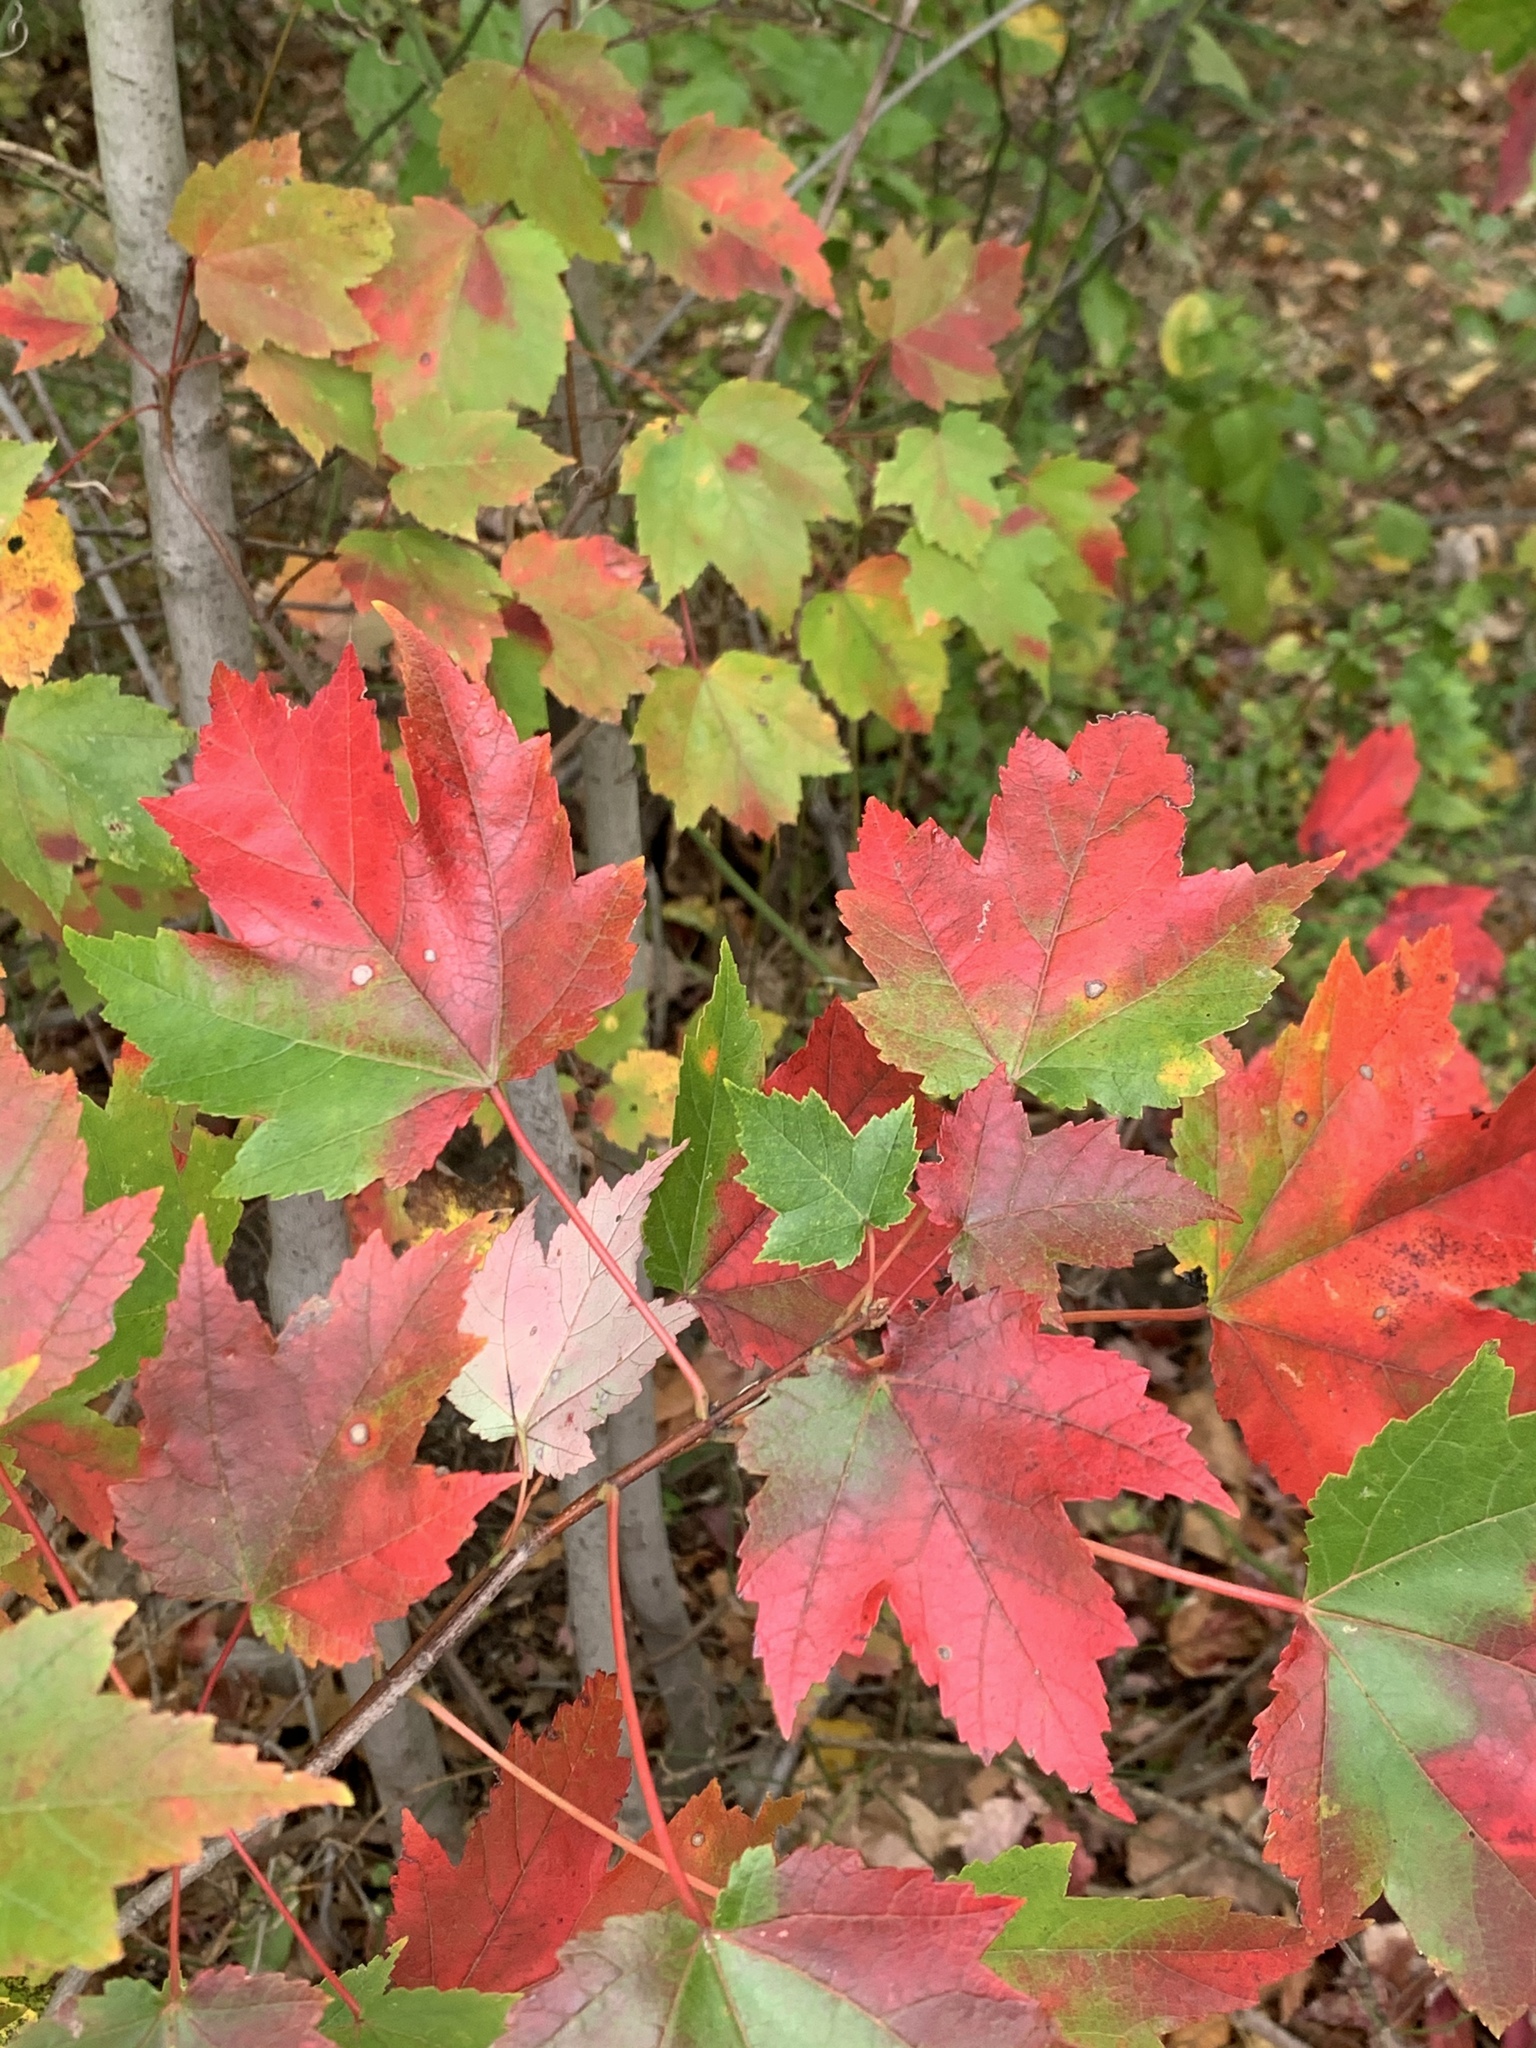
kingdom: Plantae
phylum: Tracheophyta
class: Magnoliopsida
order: Sapindales
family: Sapindaceae
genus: Acer
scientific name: Acer rubrum
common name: Red maple
